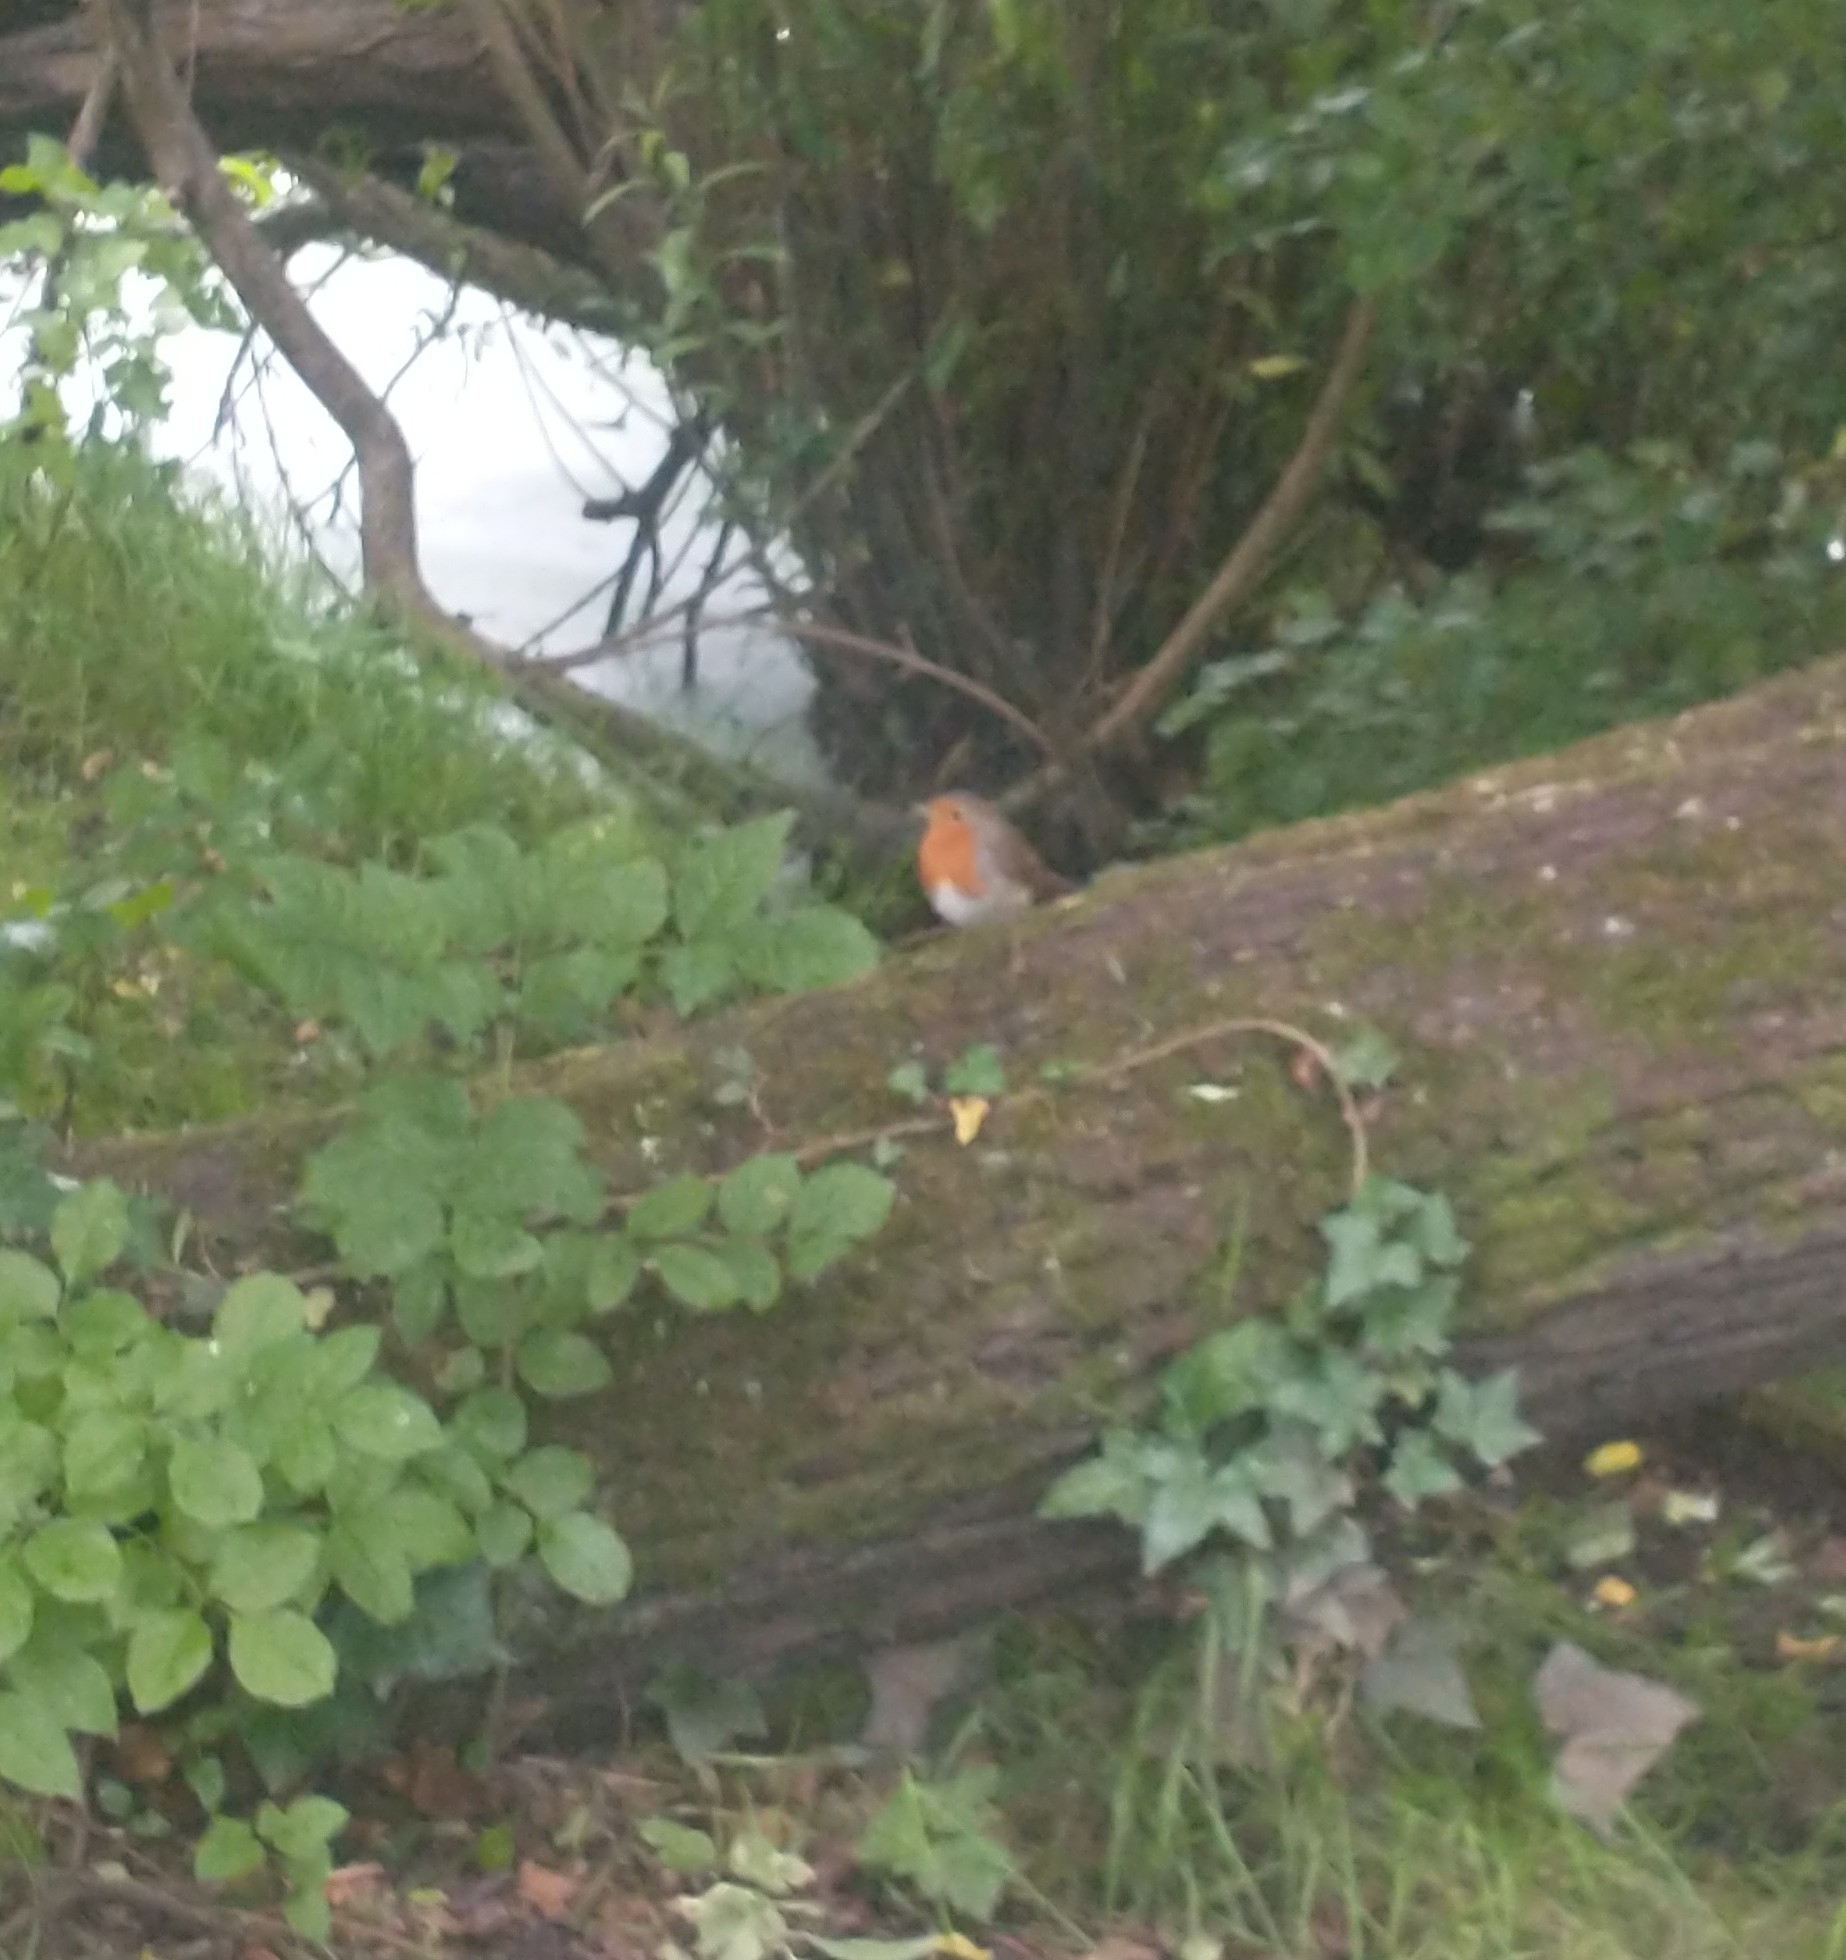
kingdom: Animalia
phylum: Chordata
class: Aves
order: Passeriformes
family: Muscicapidae
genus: Erithacus
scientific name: Erithacus rubecula
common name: European robin
